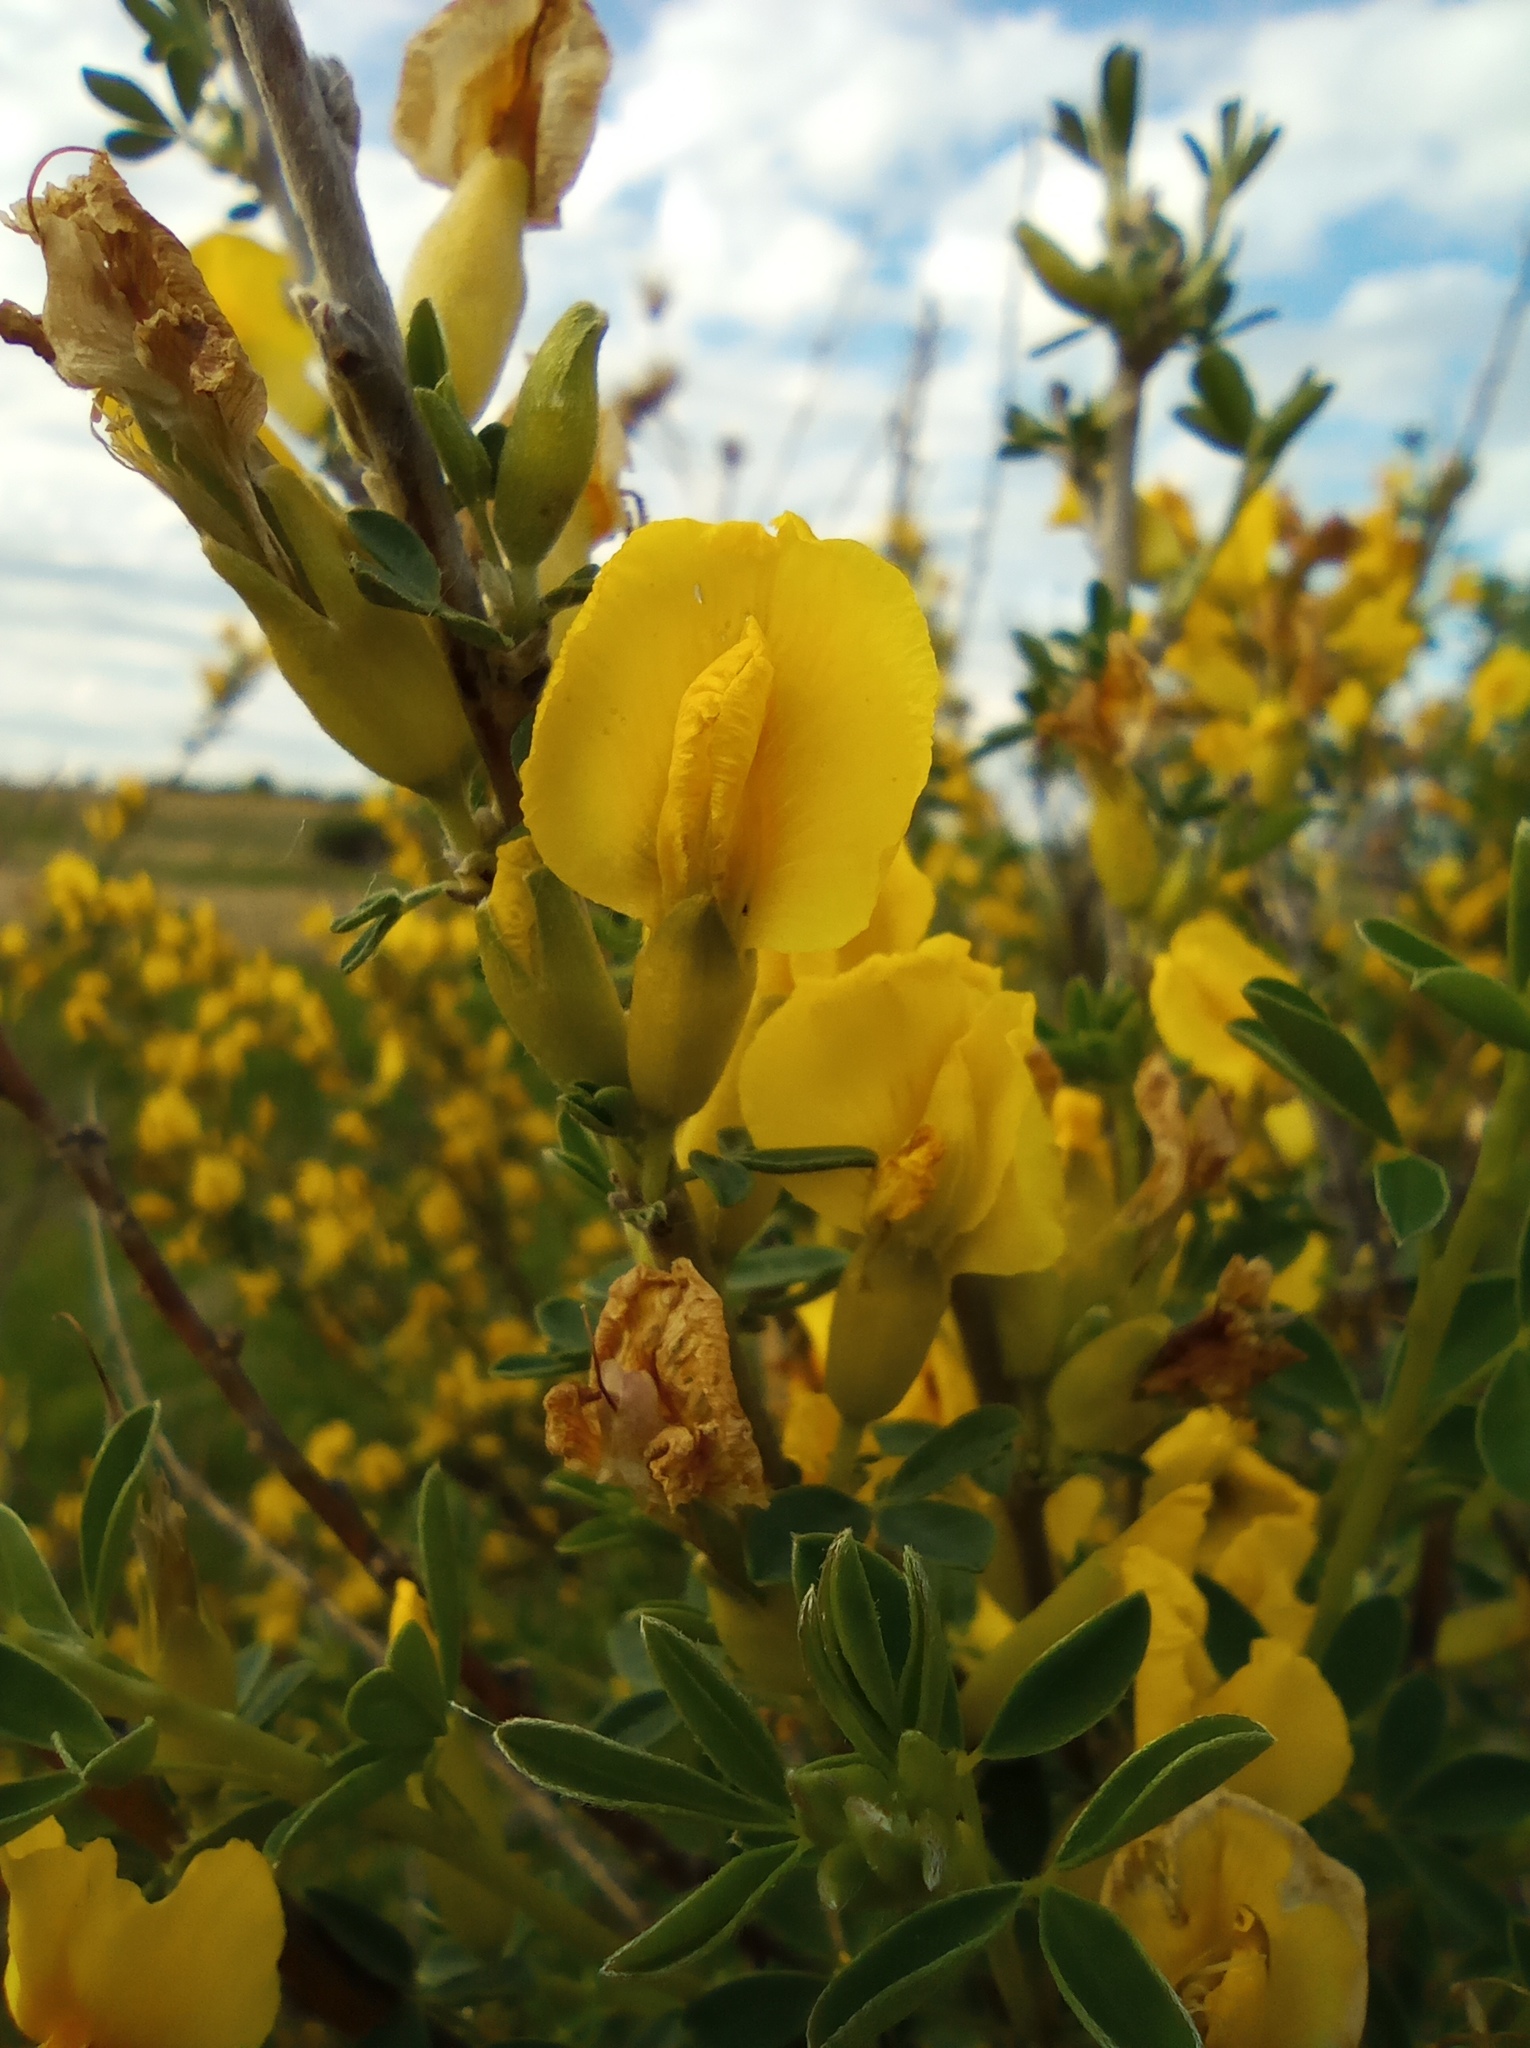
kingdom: Plantae
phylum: Tracheophyta
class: Magnoliopsida
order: Fabales
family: Fabaceae
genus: Chamaecytisus
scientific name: Chamaecytisus ruthenicus
